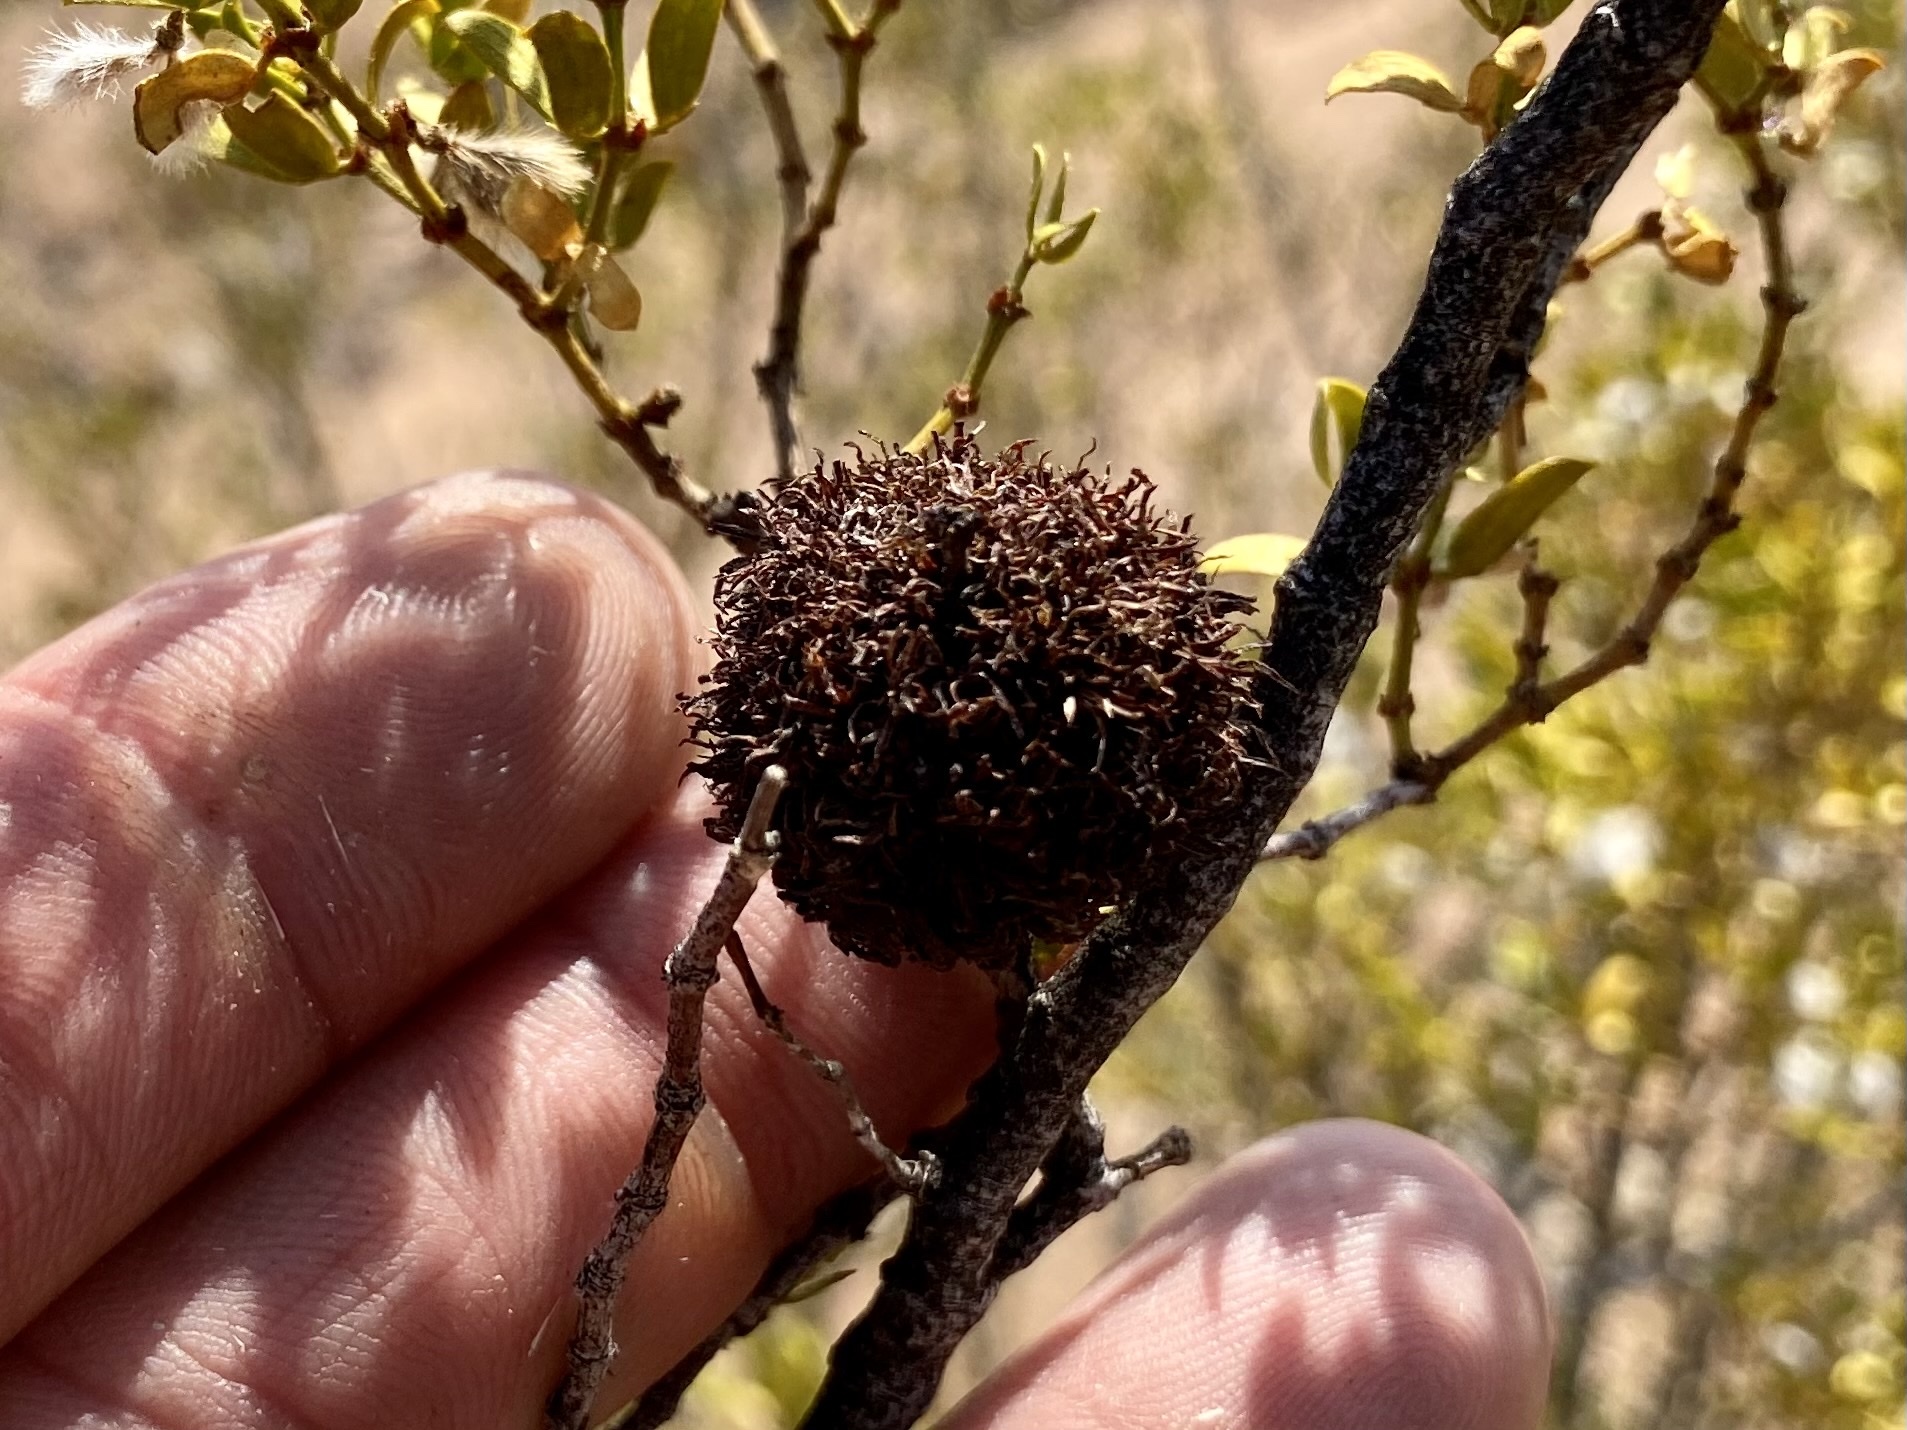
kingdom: Animalia
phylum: Arthropoda
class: Insecta
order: Diptera
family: Cecidomyiidae
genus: Asphondylia
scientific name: Asphondylia auripila
